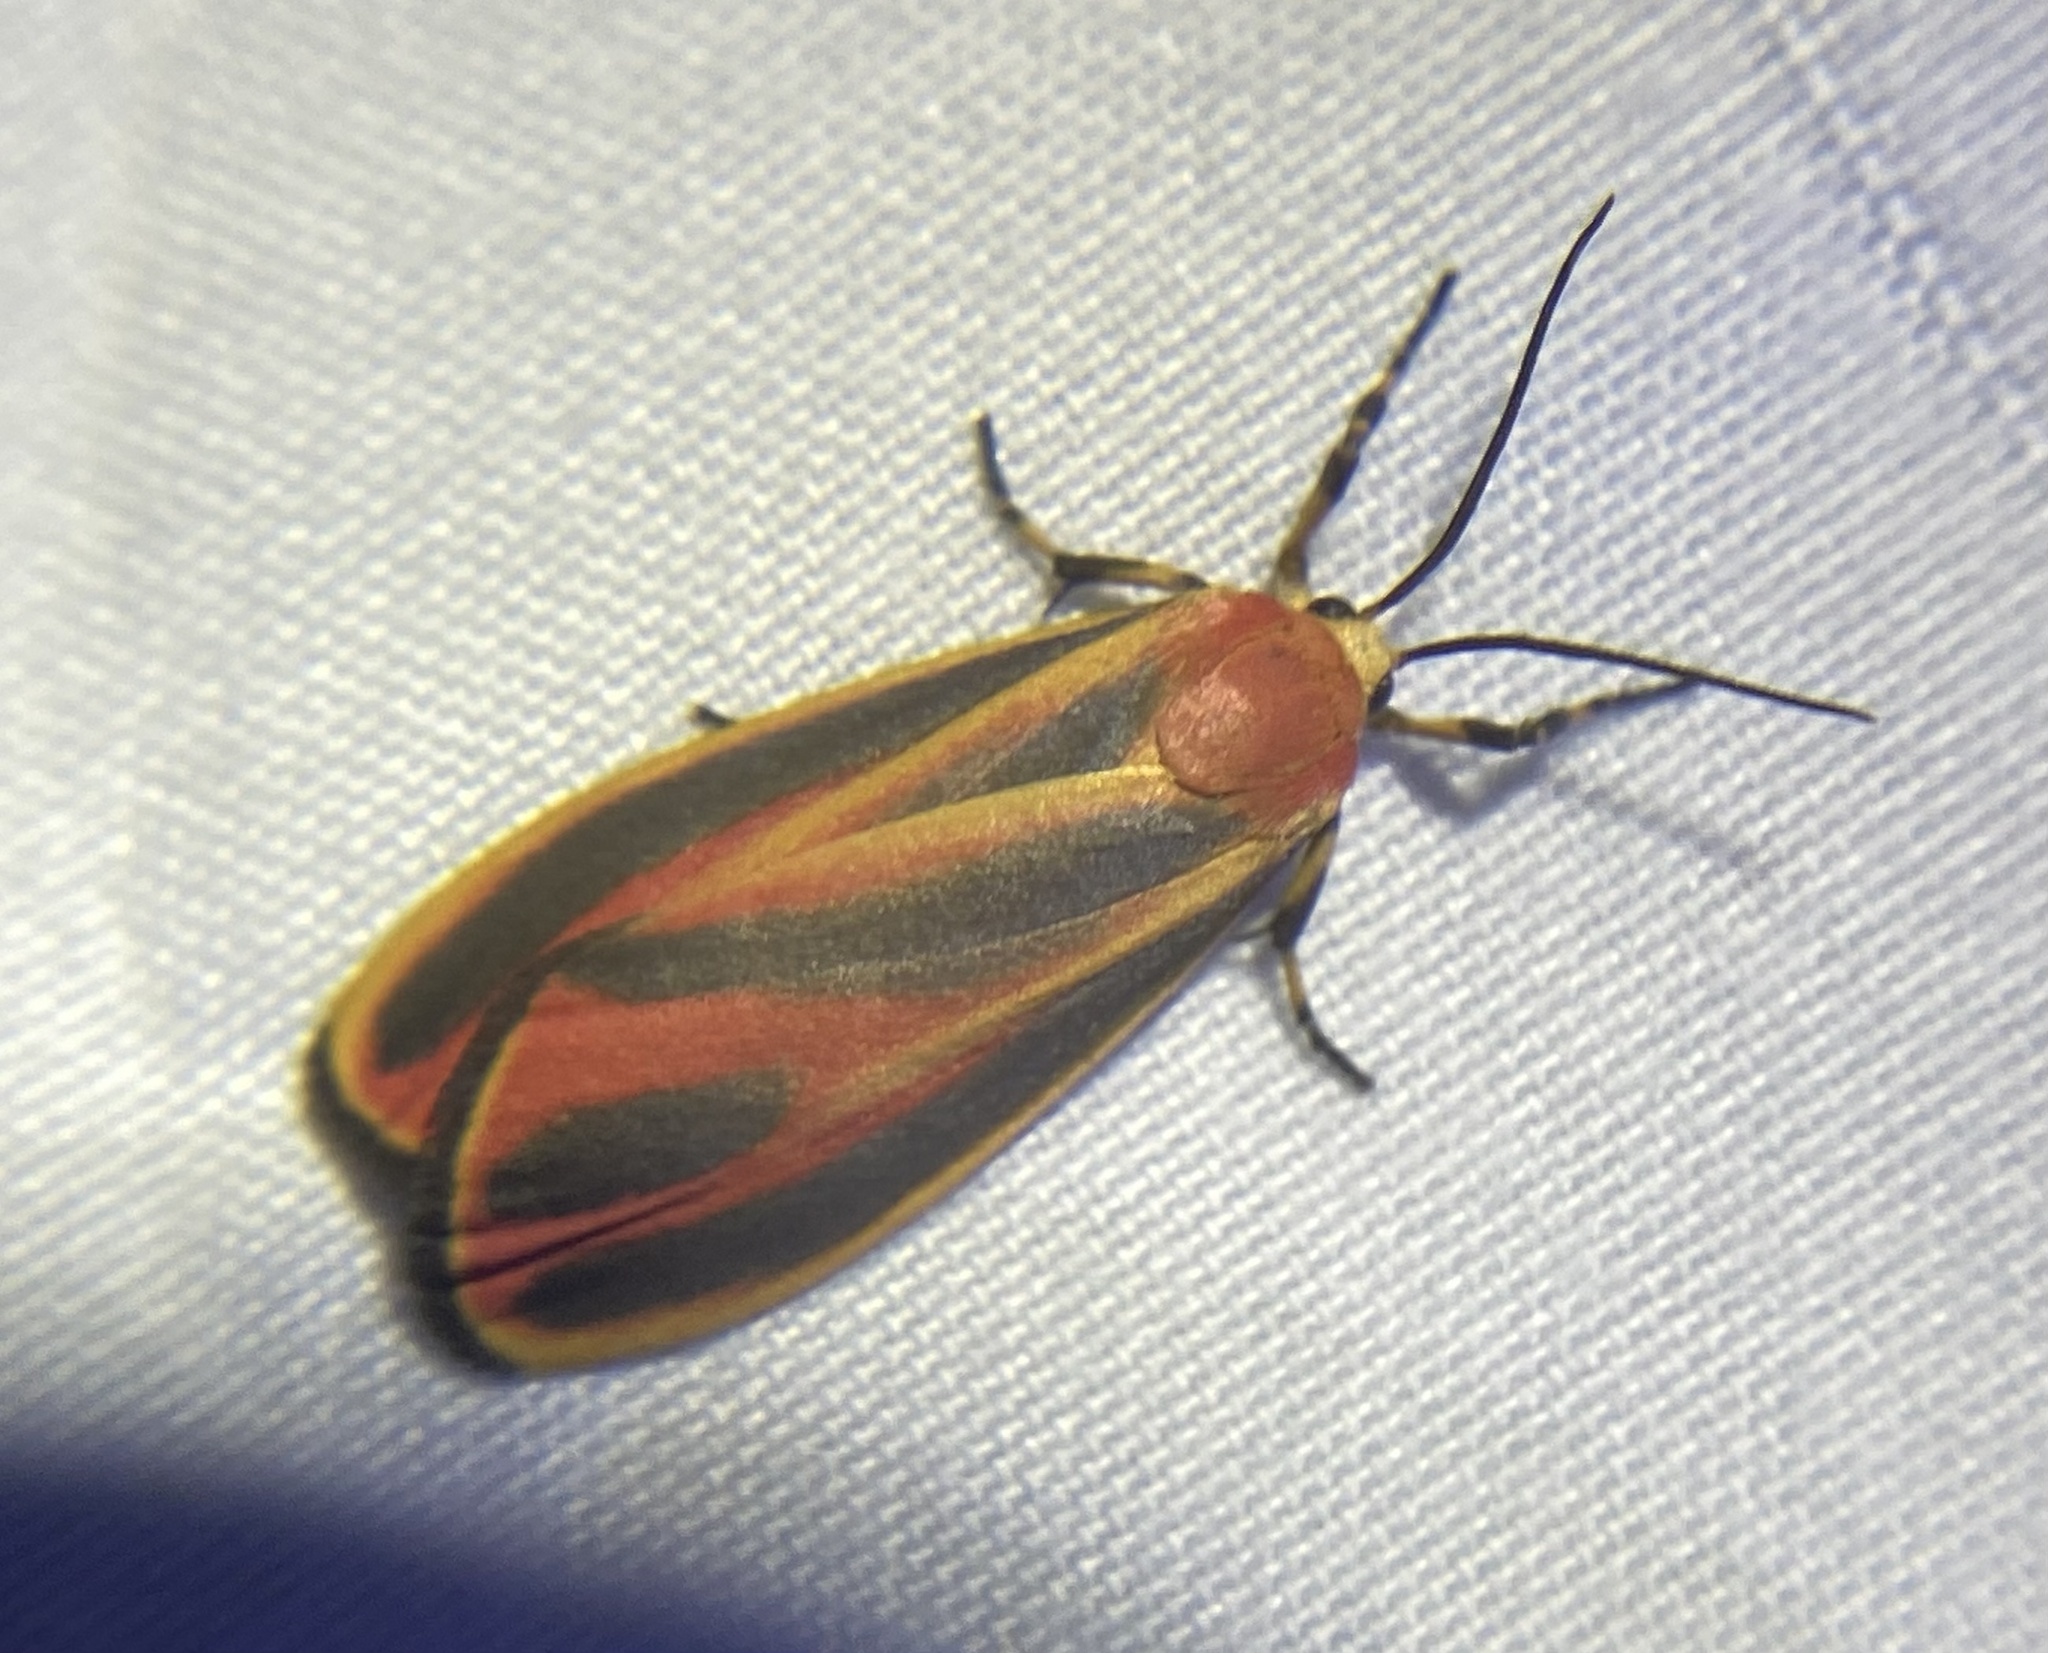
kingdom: Animalia
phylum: Arthropoda
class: Insecta
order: Lepidoptera
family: Erebidae
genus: Hypoprepia
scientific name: Hypoprepia fucosa
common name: Painted lichen moth
